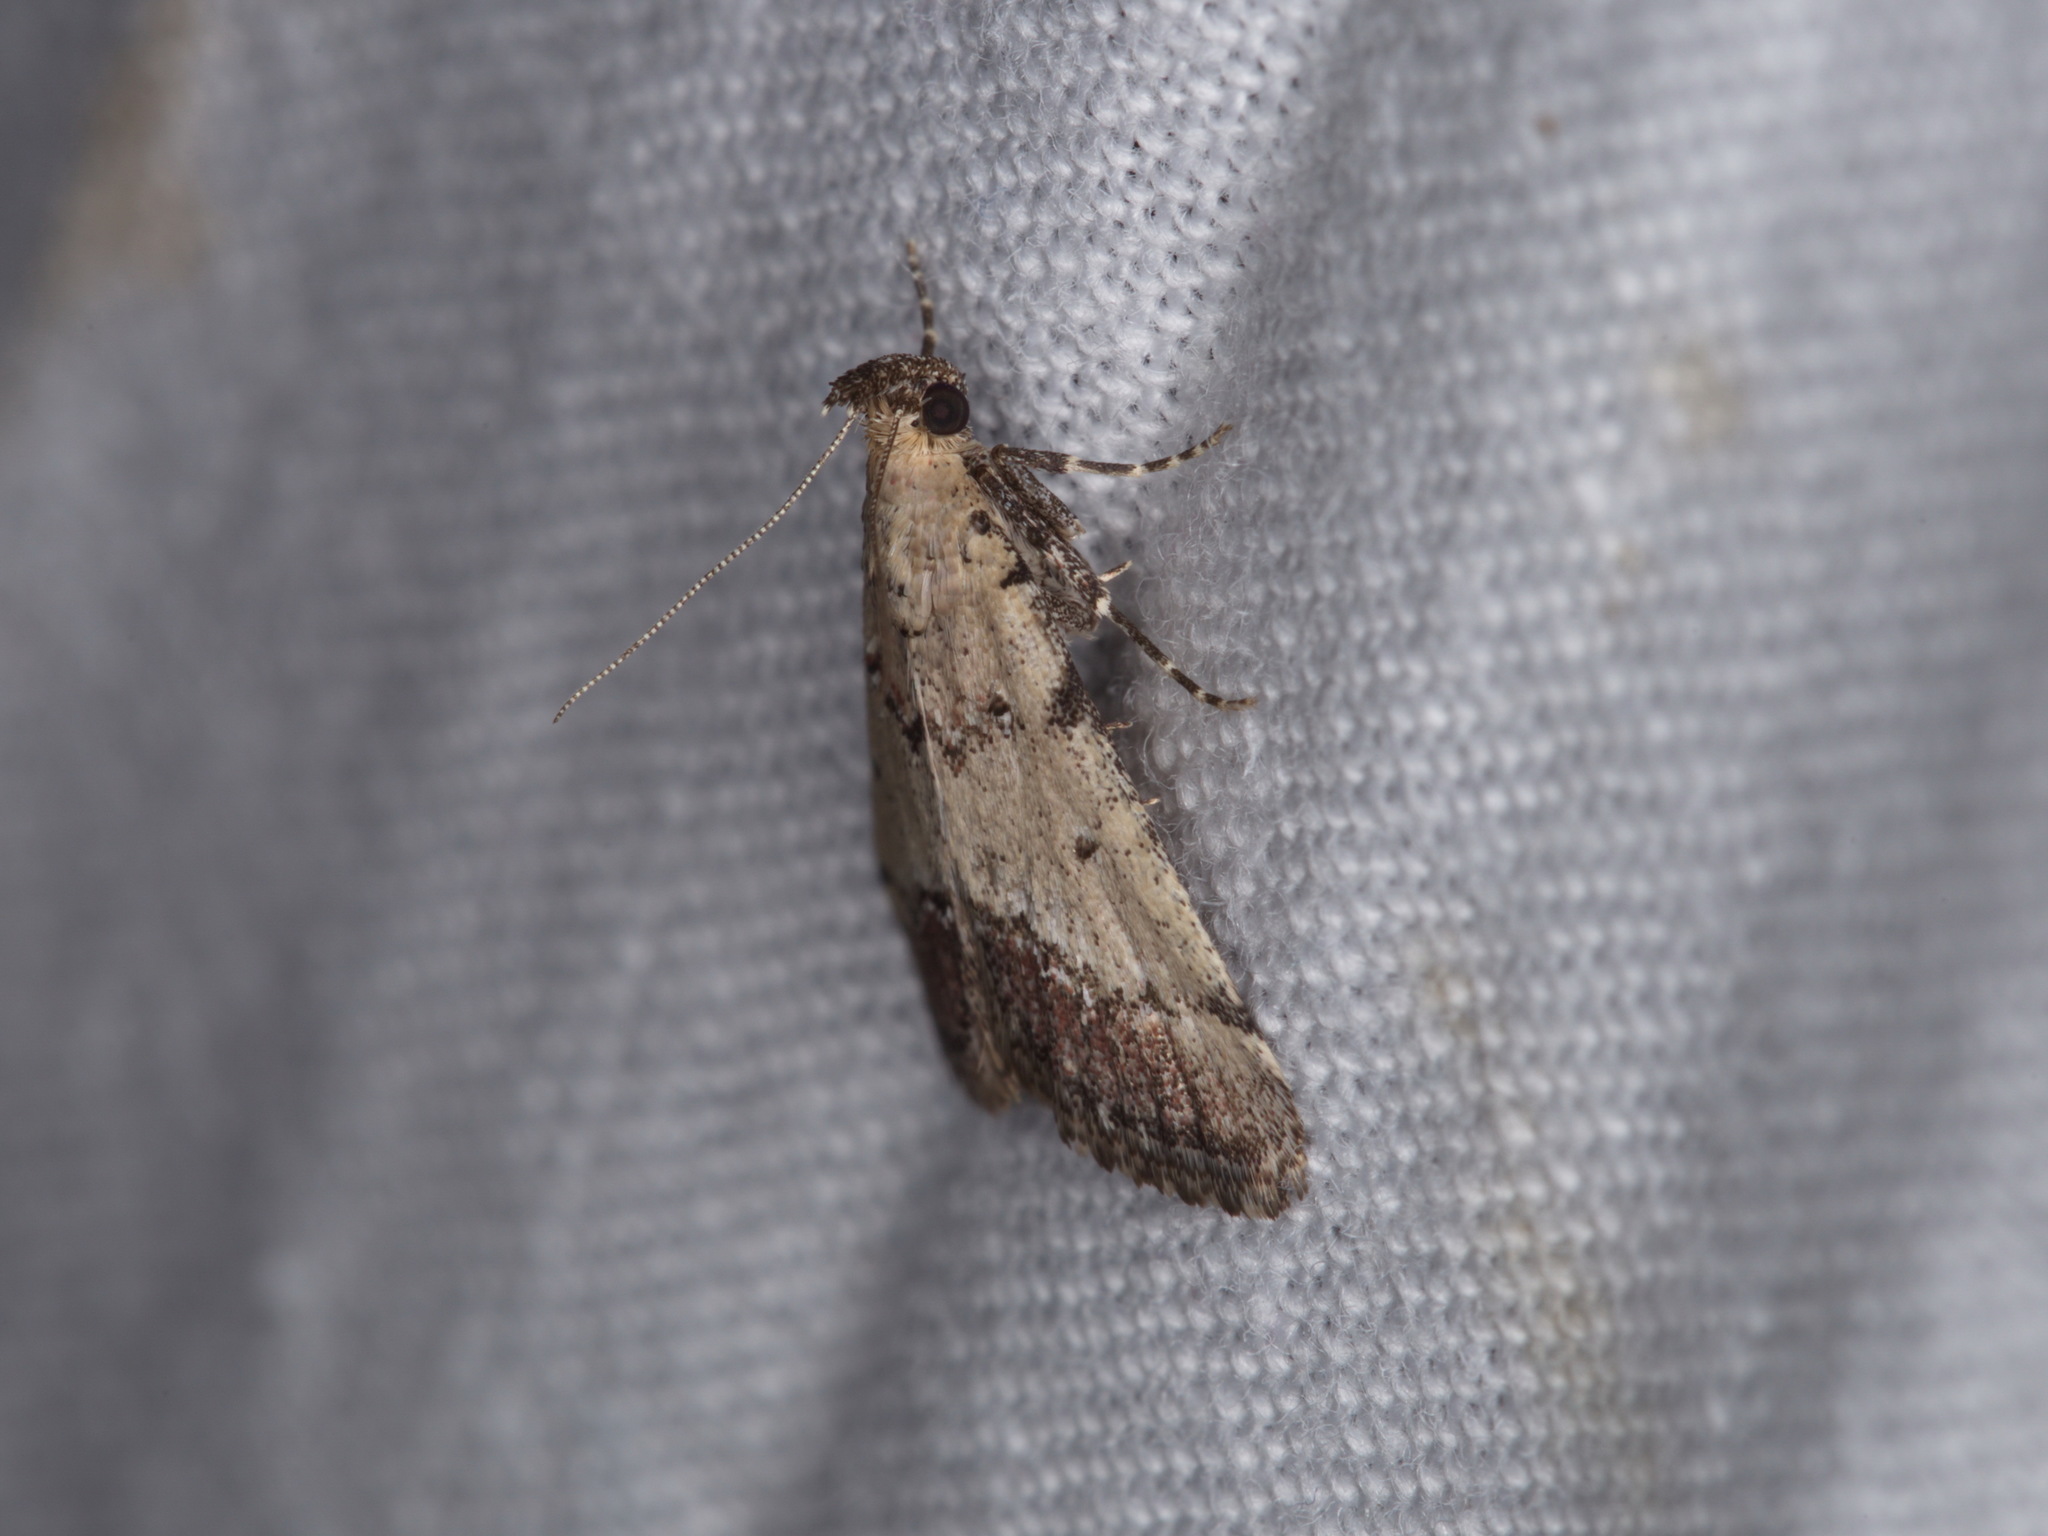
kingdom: Animalia
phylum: Arthropoda
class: Insecta
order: Lepidoptera
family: Pyralidae
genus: Salma
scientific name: Salma mnesibrya
